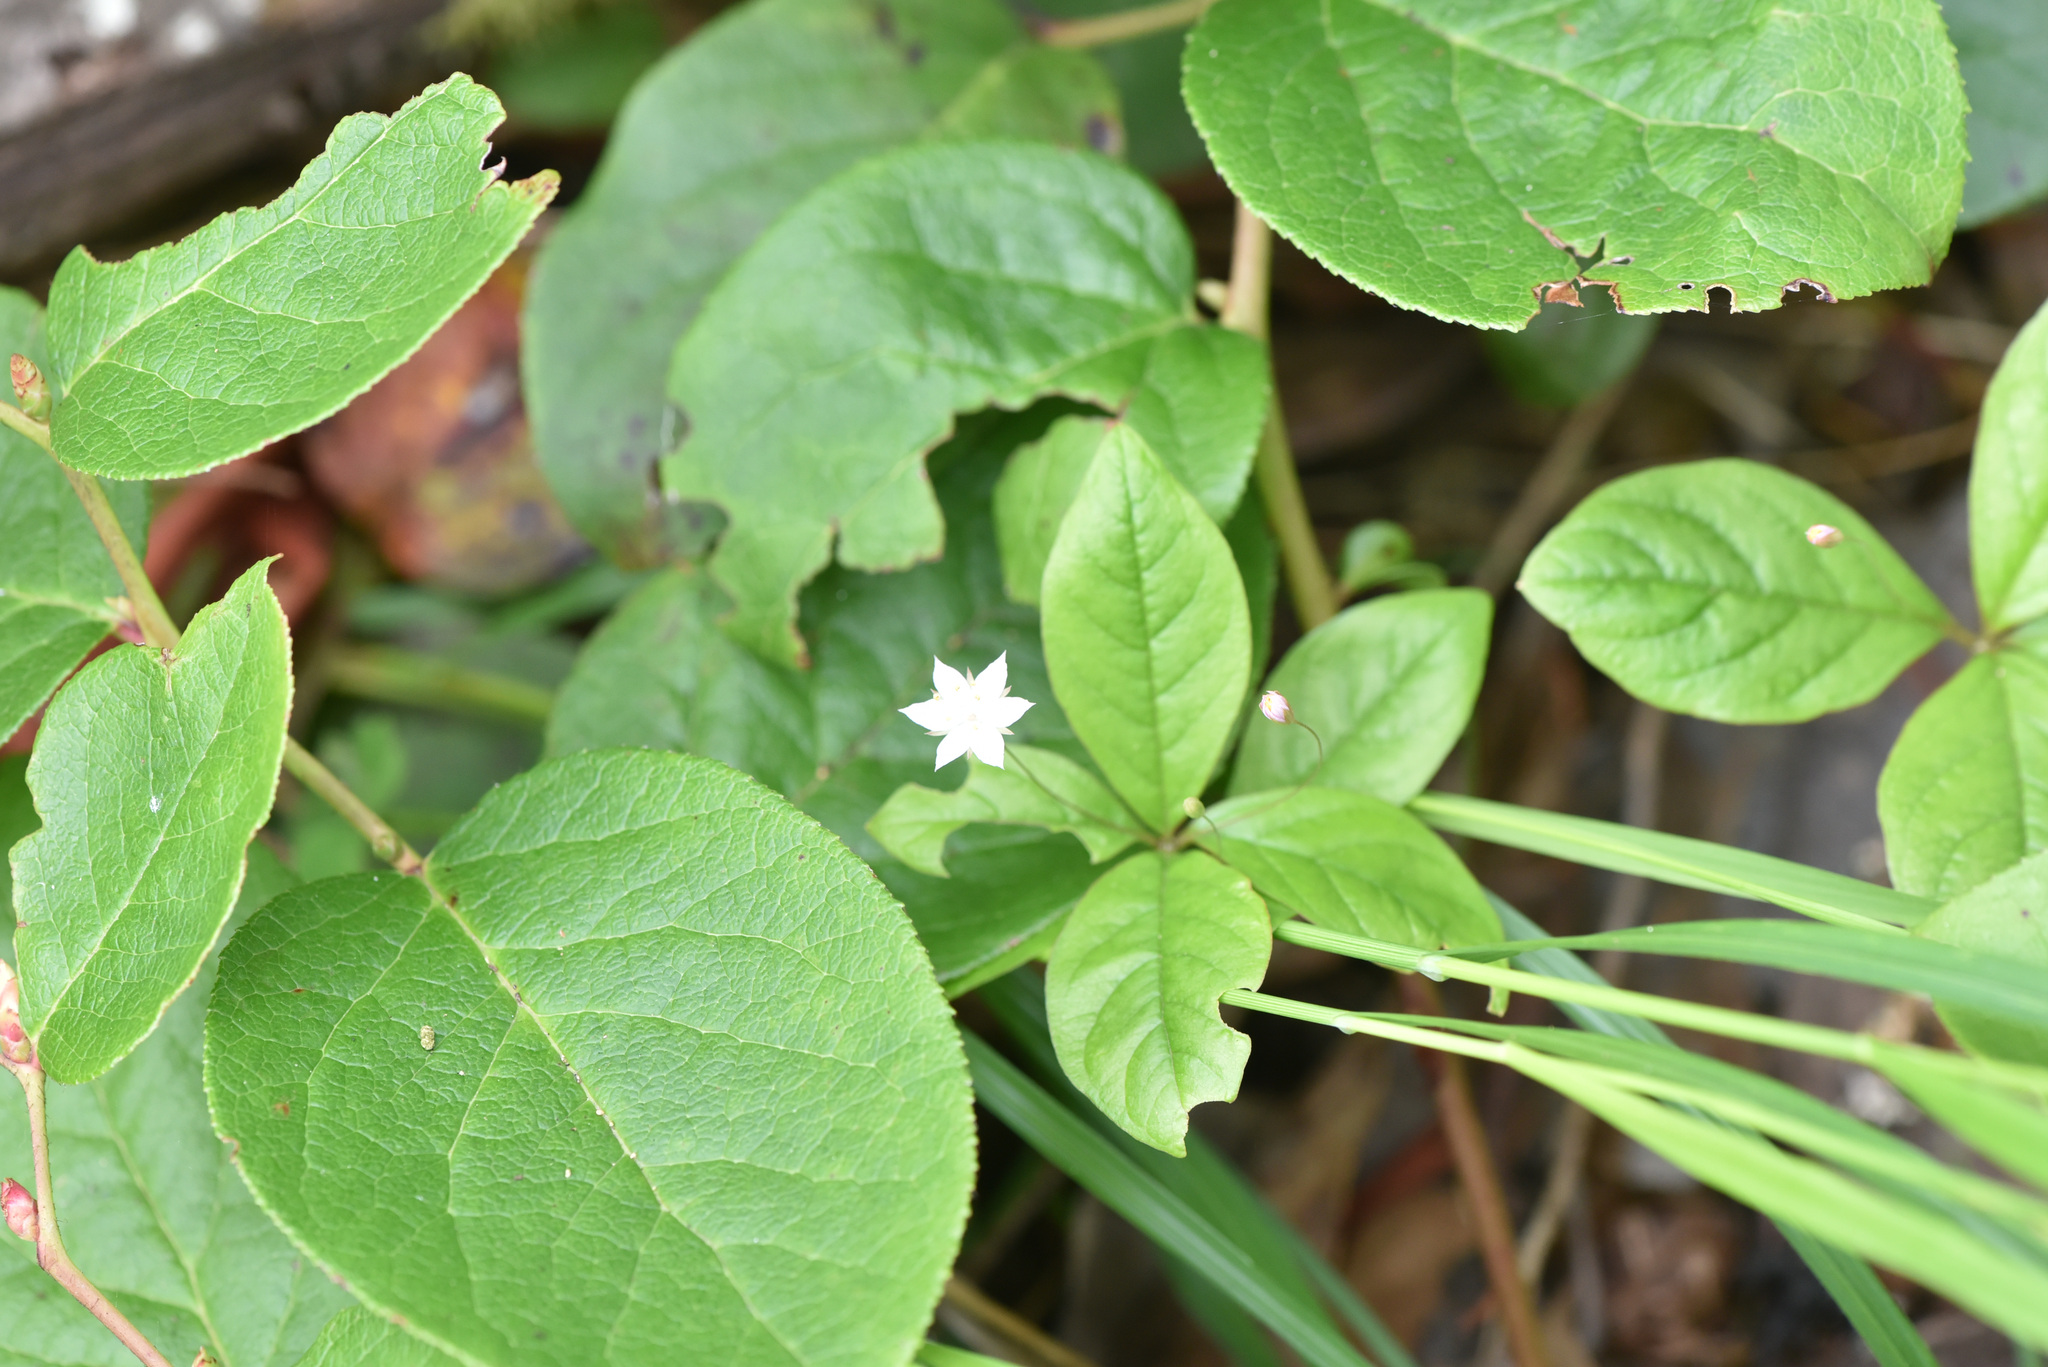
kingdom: Plantae
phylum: Tracheophyta
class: Magnoliopsida
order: Ericales
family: Ericaceae
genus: Gaultheria
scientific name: Gaultheria shallon
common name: Shallon
